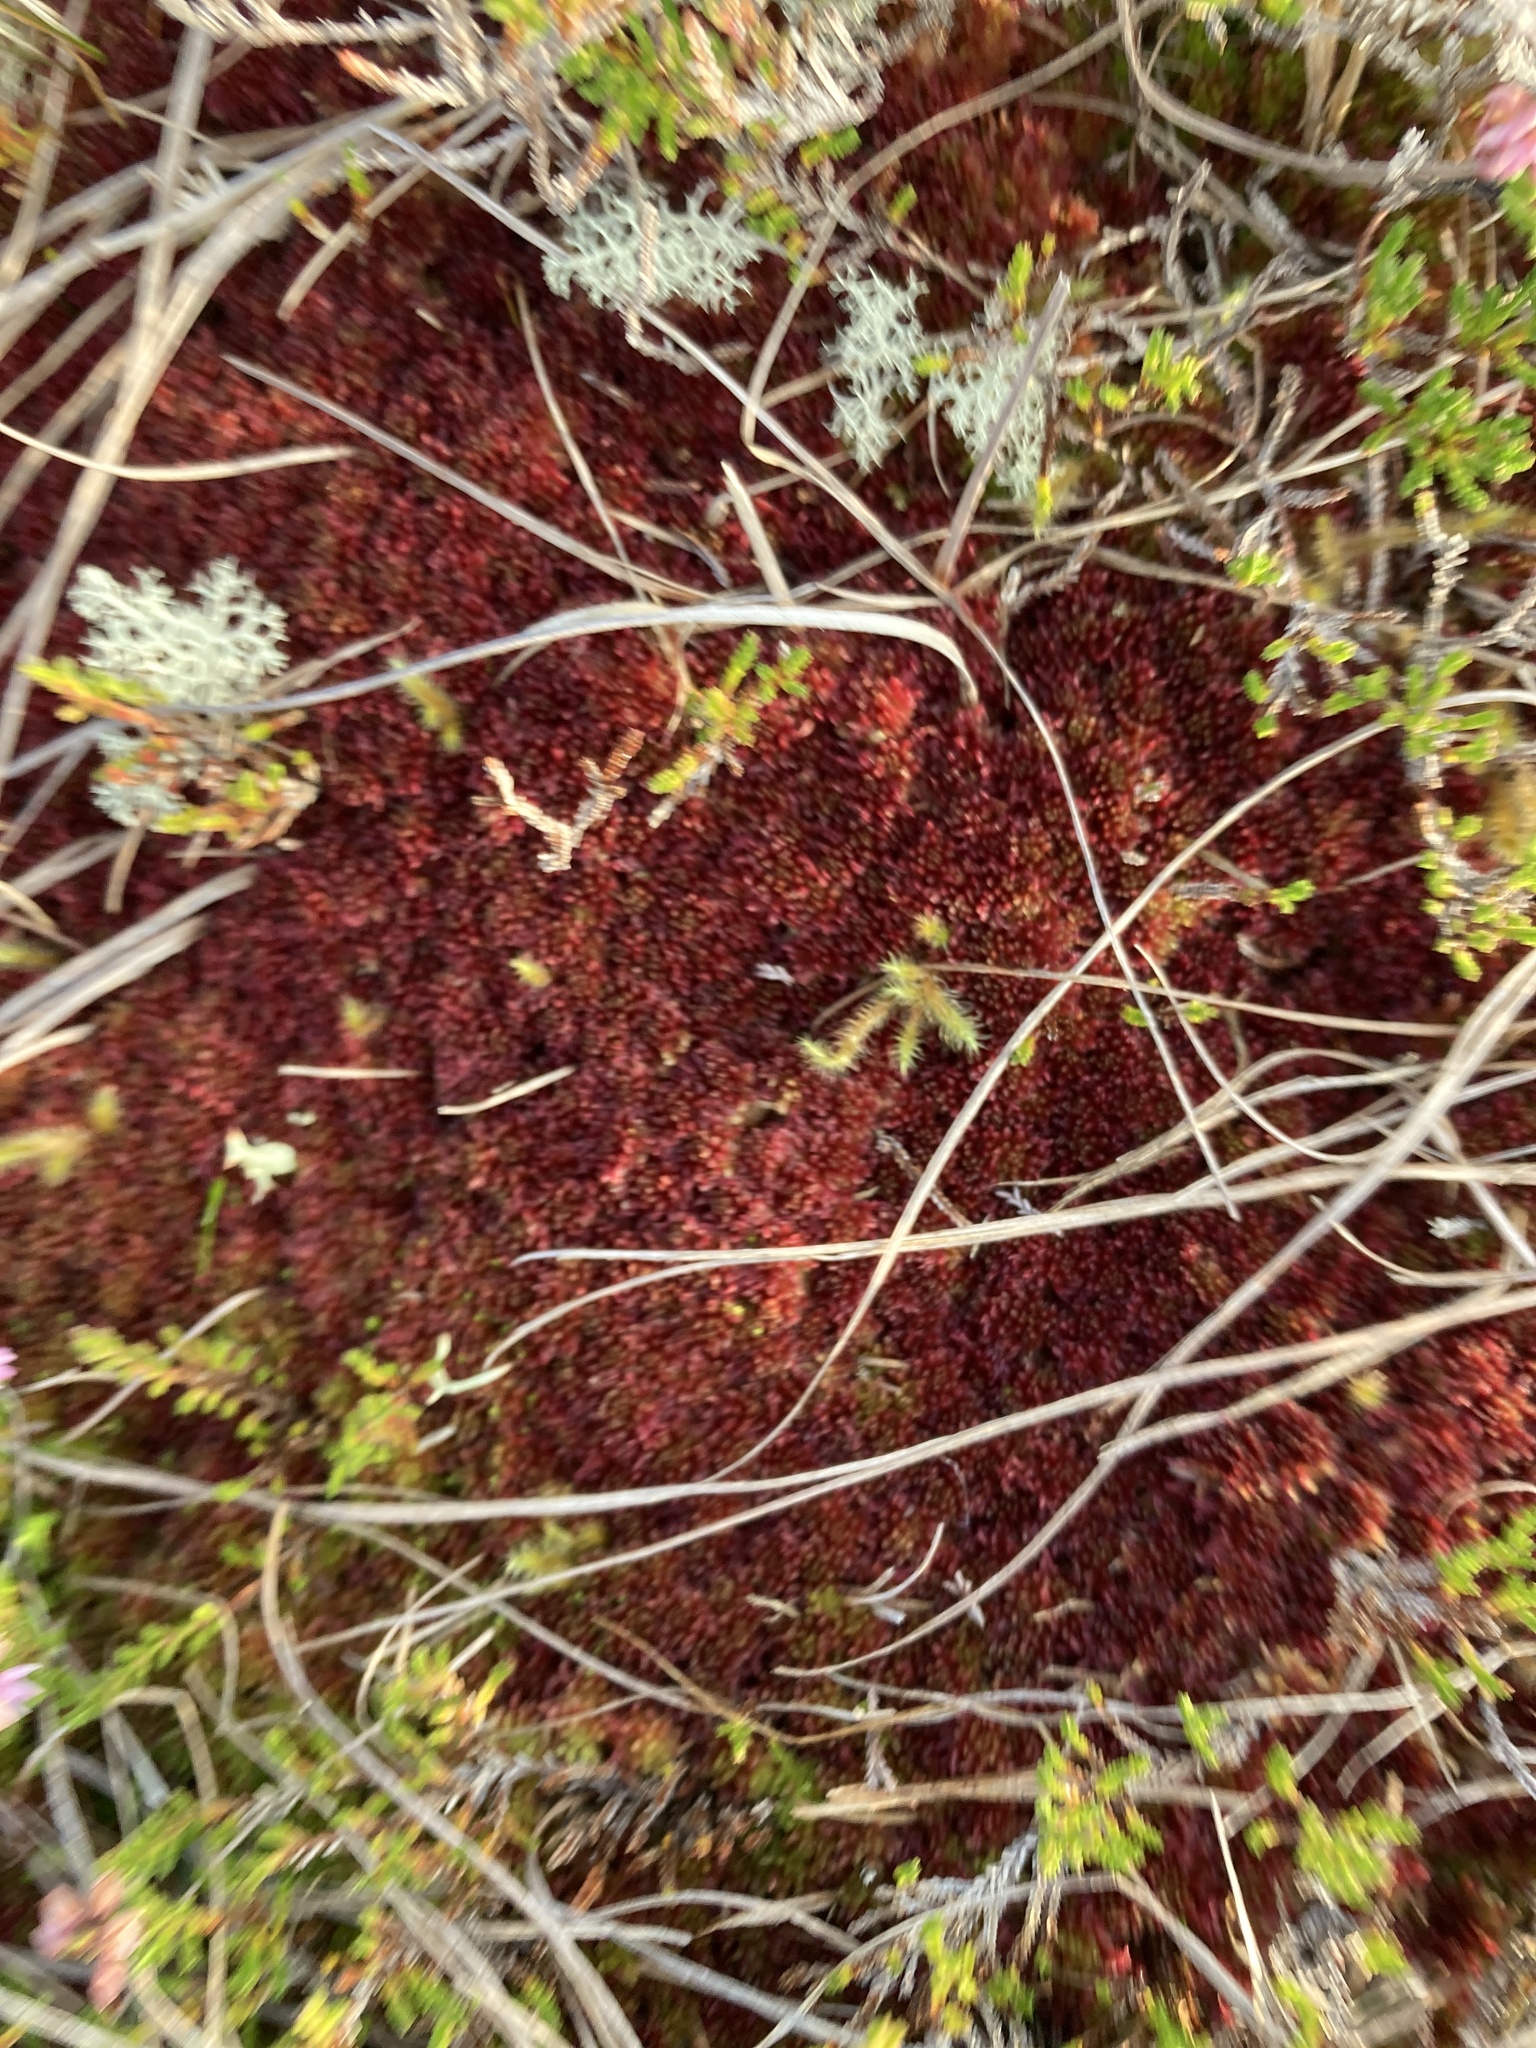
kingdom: Plantae
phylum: Bryophyta
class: Sphagnopsida
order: Sphagnales
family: Sphagnaceae
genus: Sphagnum
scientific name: Sphagnum
